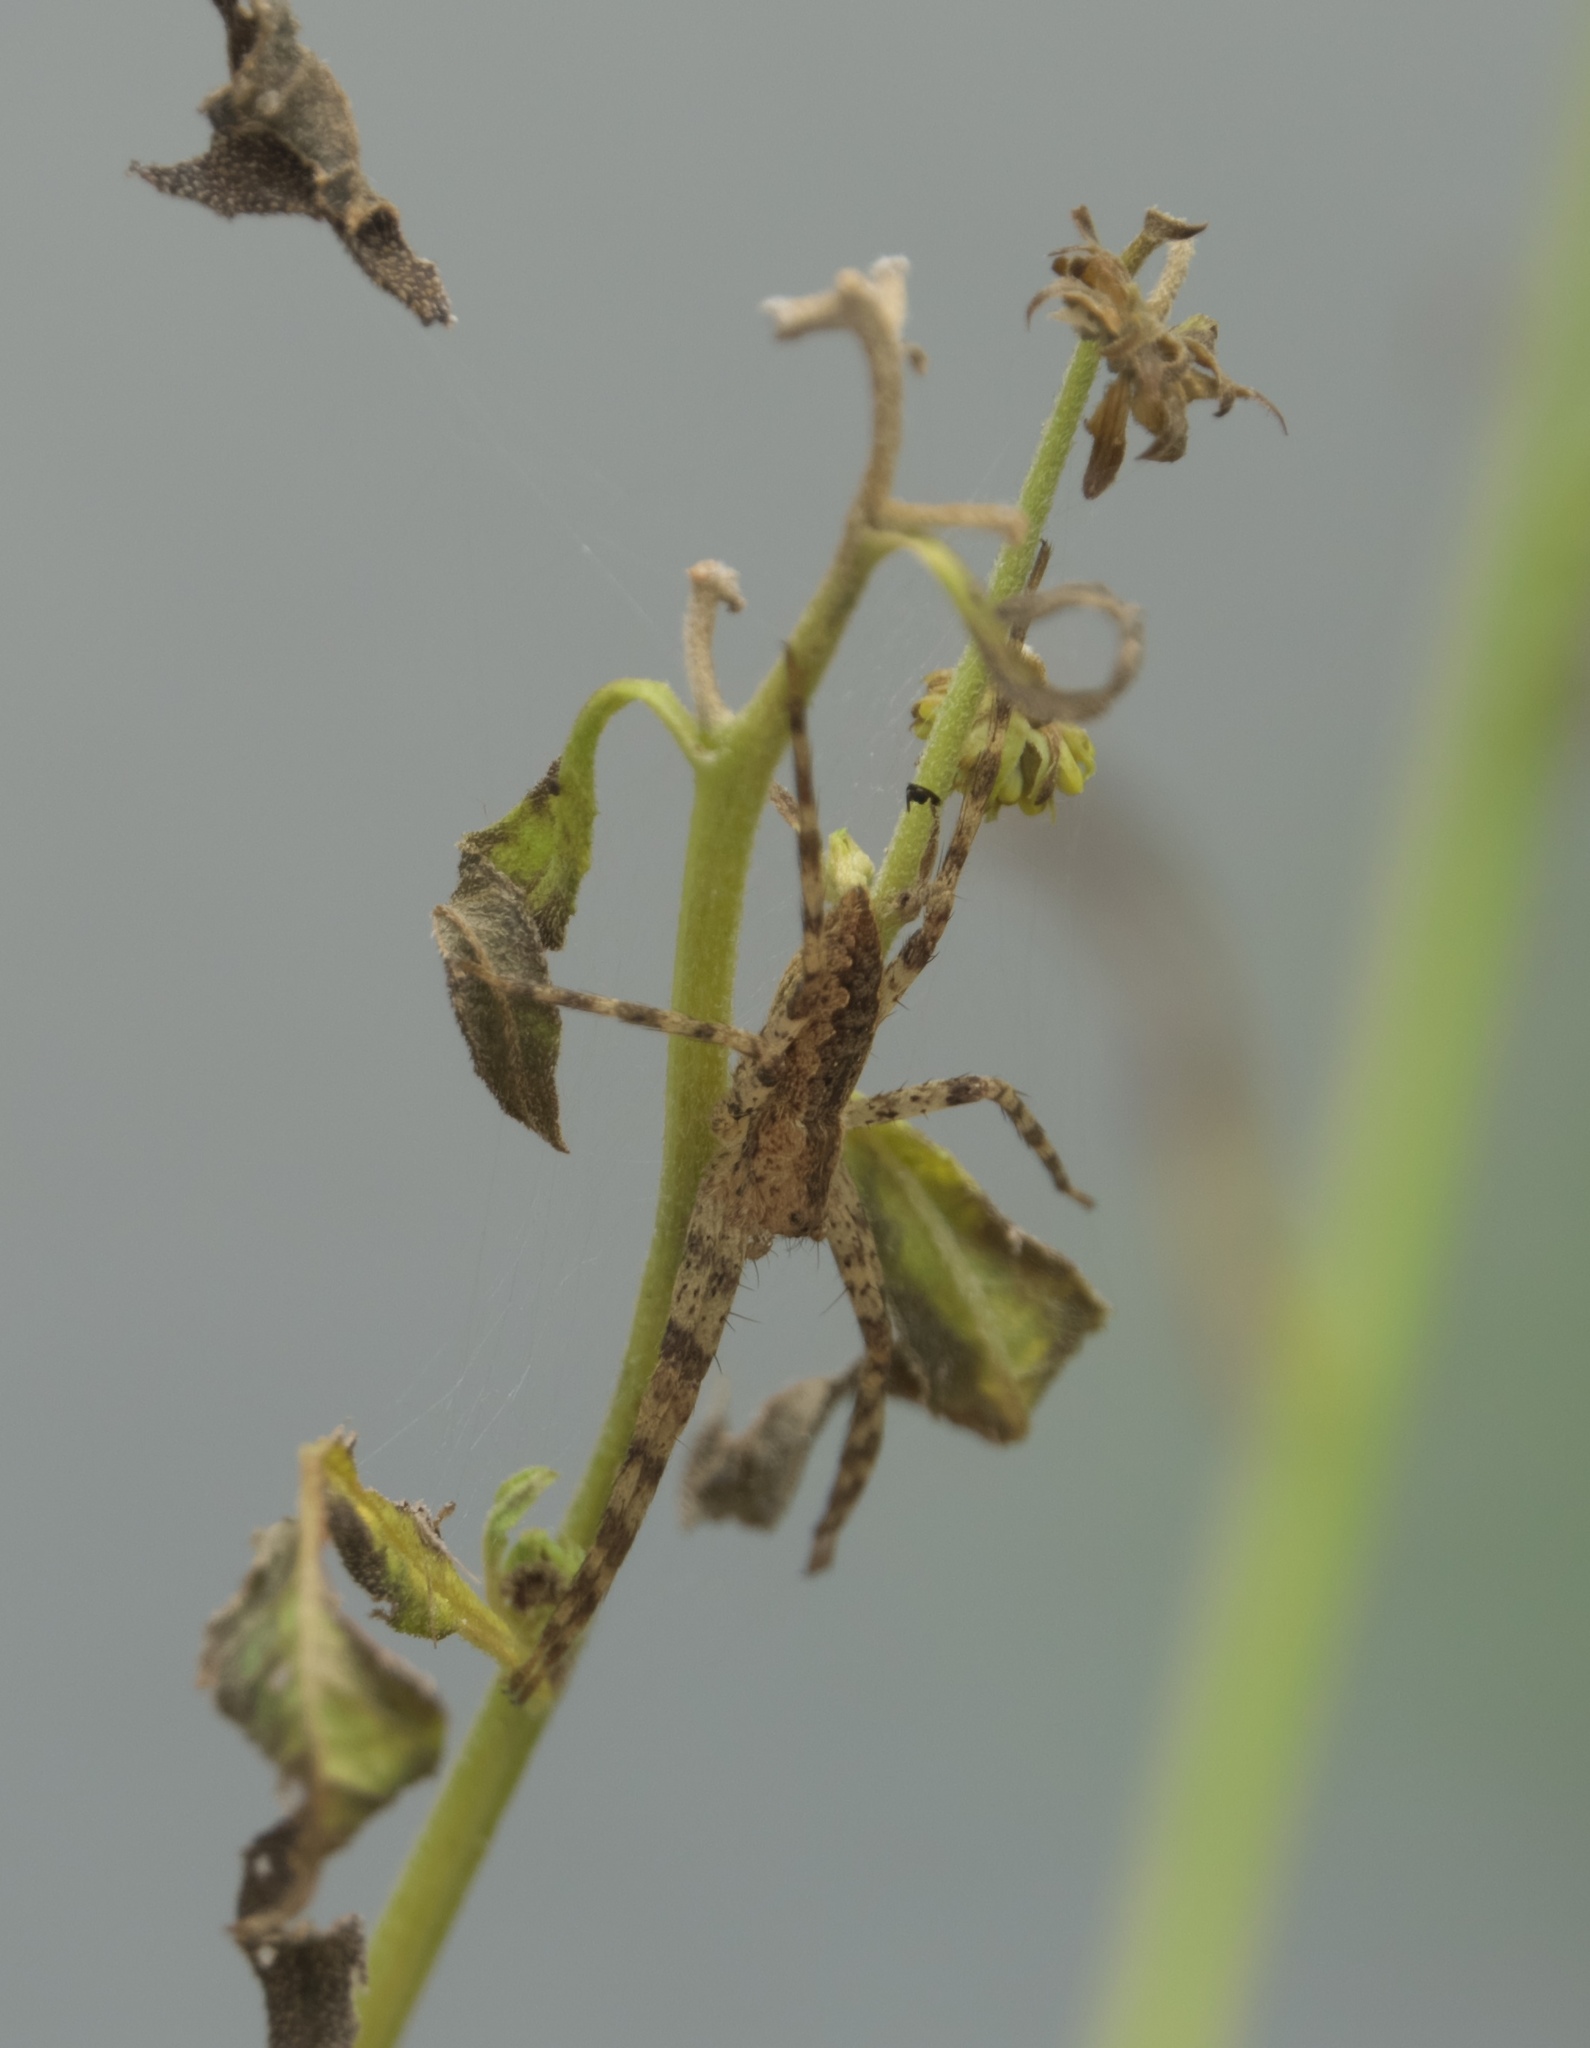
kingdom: Animalia
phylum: Arthropoda
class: Arachnida
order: Araneae
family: Pisauridae
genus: Pisaurina
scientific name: Pisaurina mira
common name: American nursery web spider
